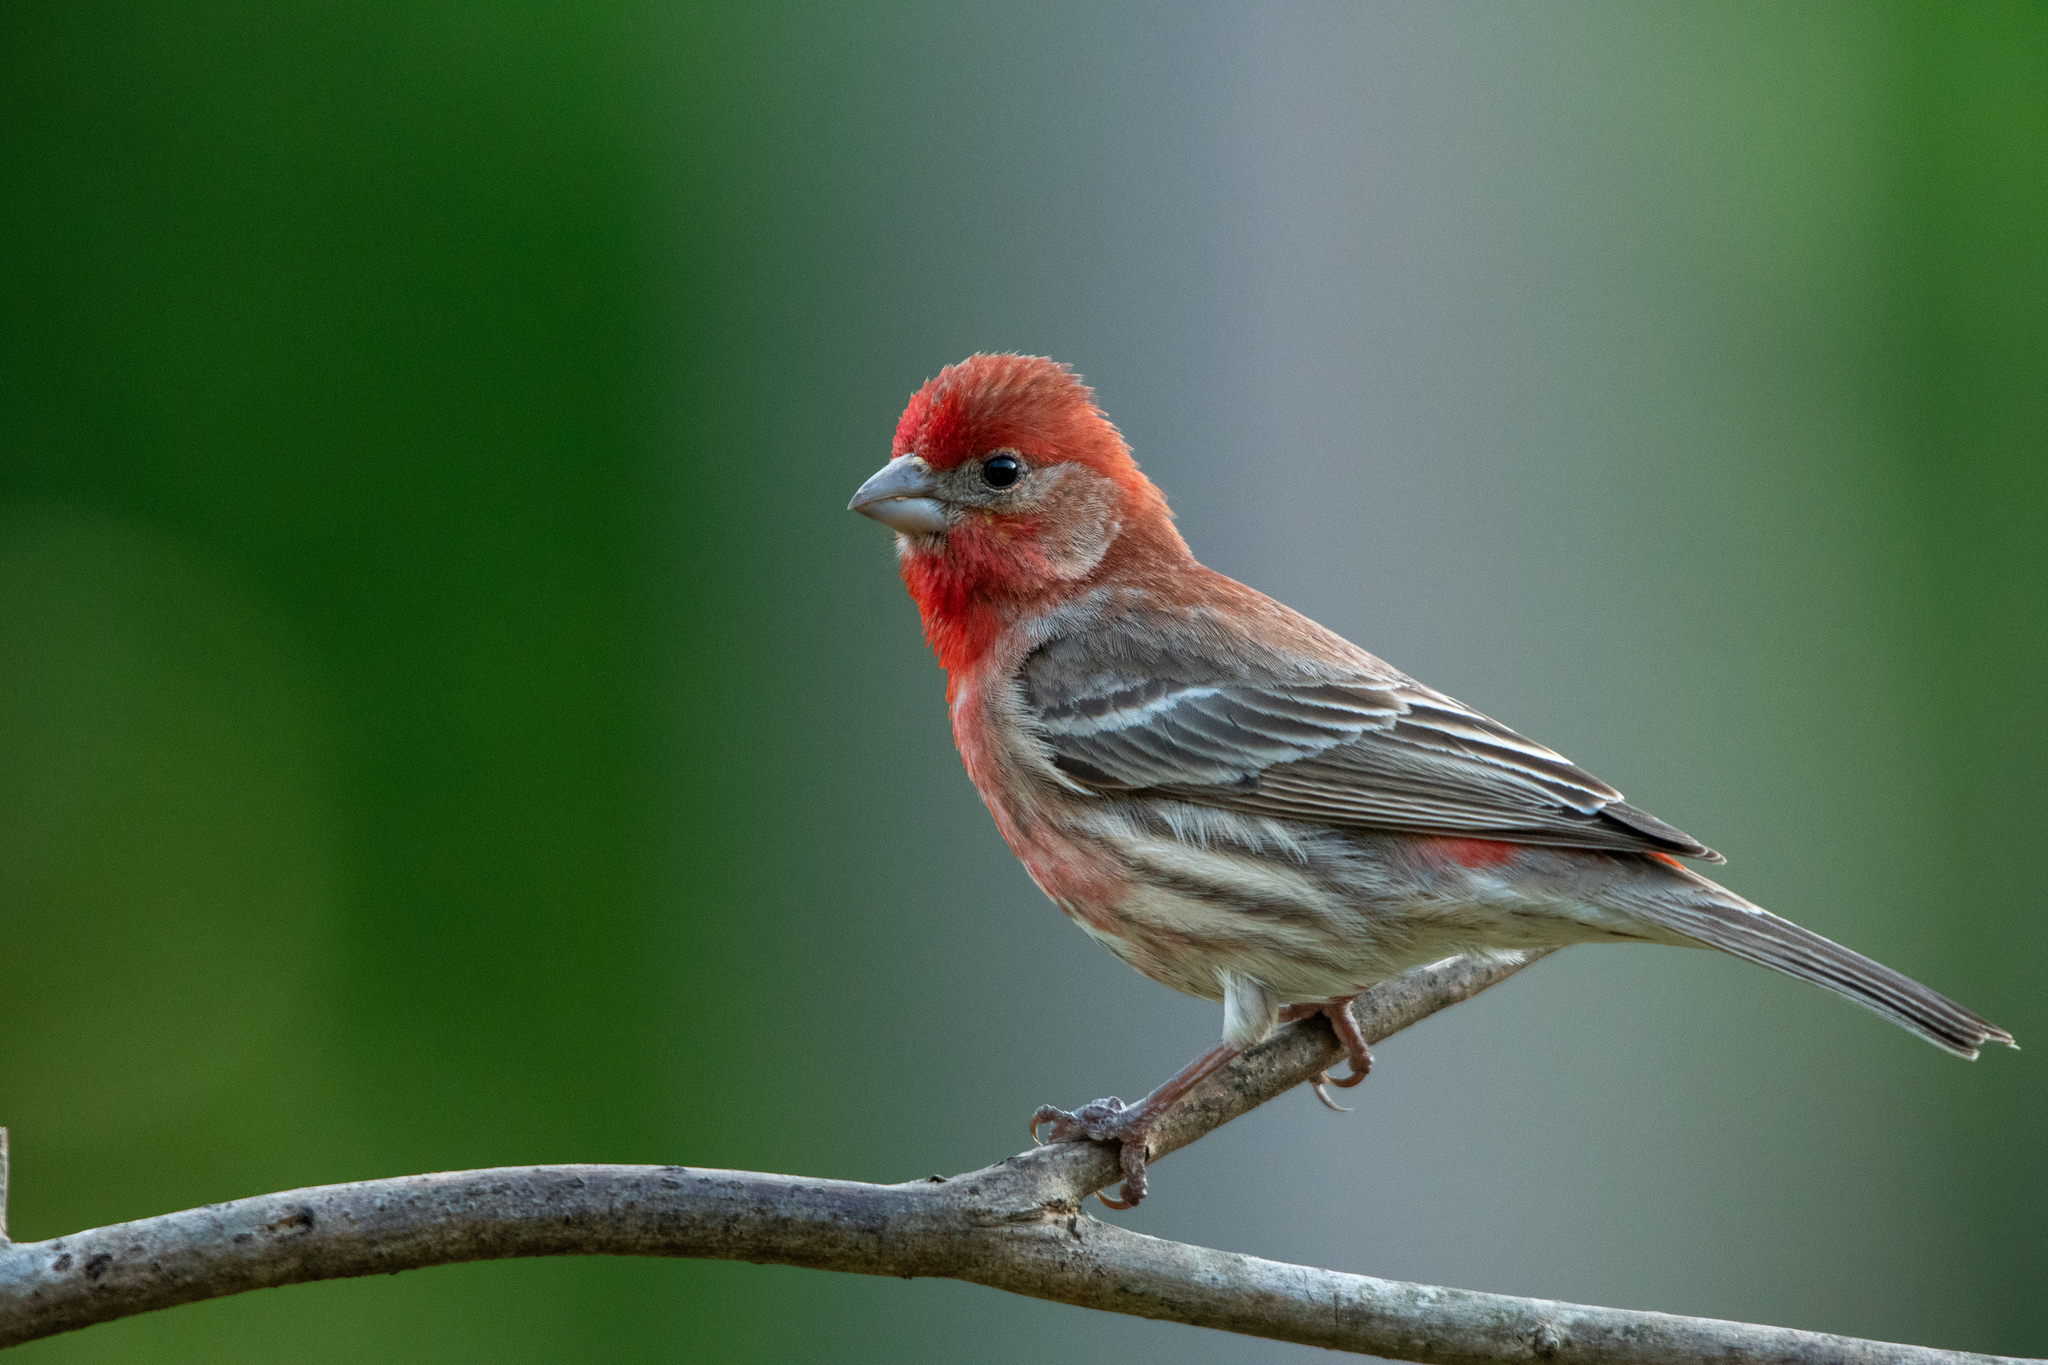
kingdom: Animalia
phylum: Chordata
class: Aves
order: Passeriformes
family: Fringillidae
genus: Haemorhous
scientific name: Haemorhous mexicanus
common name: House finch
